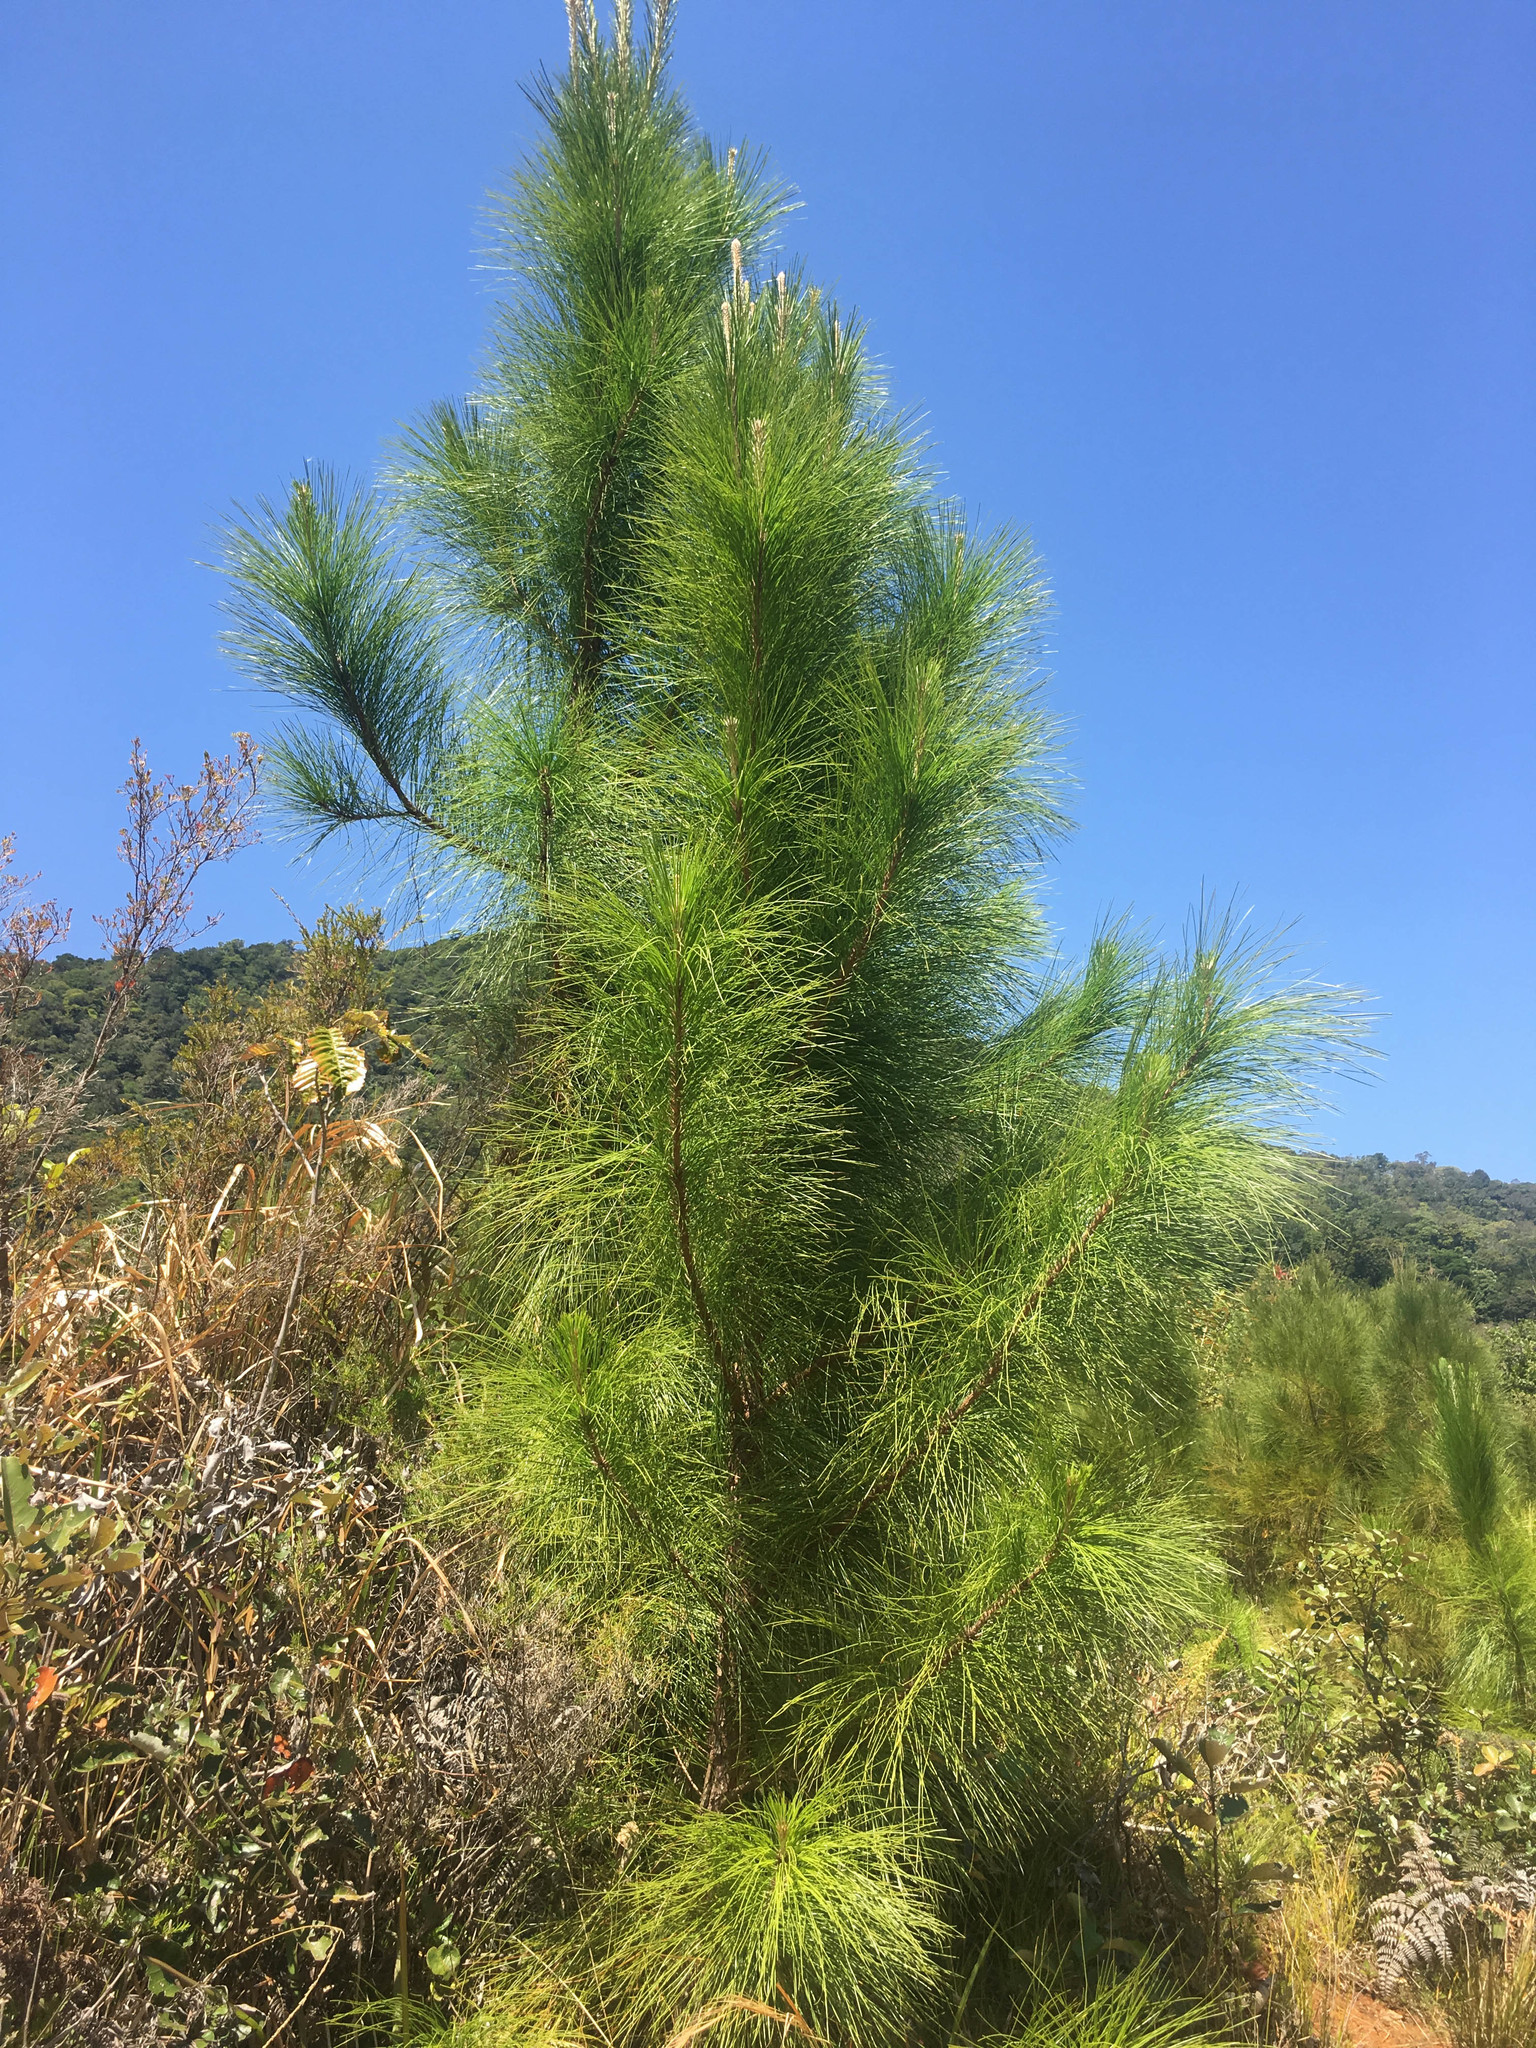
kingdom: Plantae
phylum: Tracheophyta
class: Pinopsida
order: Pinales
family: Pinaceae
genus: Pinus
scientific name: Pinus caribaea
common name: Caribbean pine
